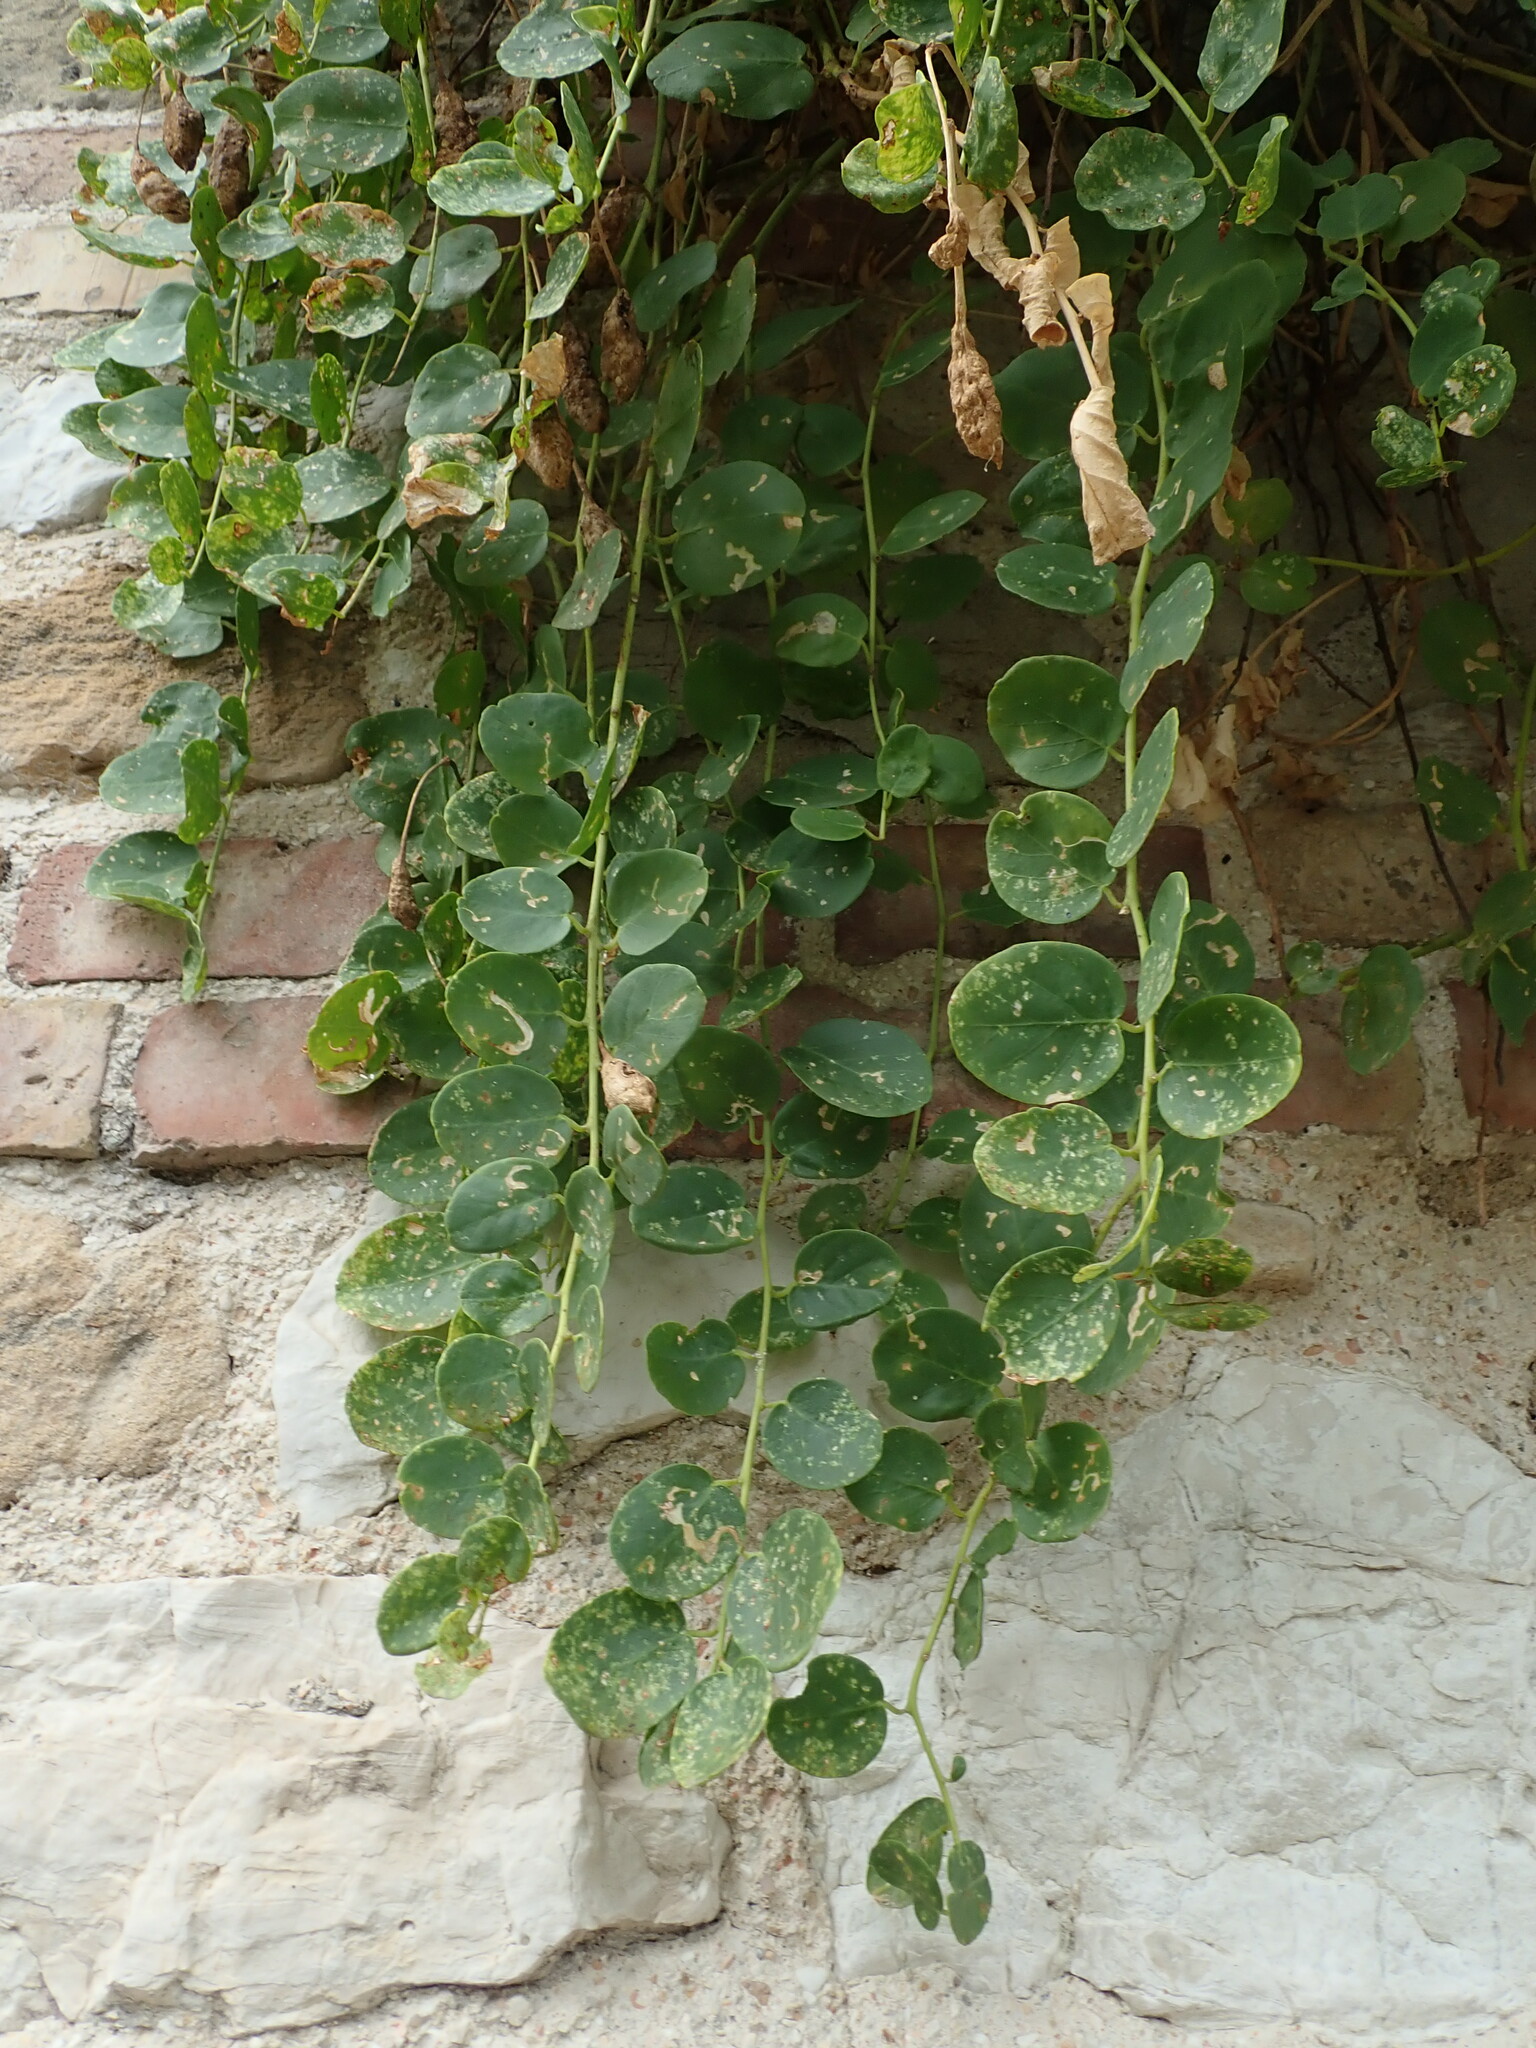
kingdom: Plantae
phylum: Tracheophyta
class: Magnoliopsida
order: Brassicales
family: Capparaceae
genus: Capparis
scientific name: Capparis orientalis
